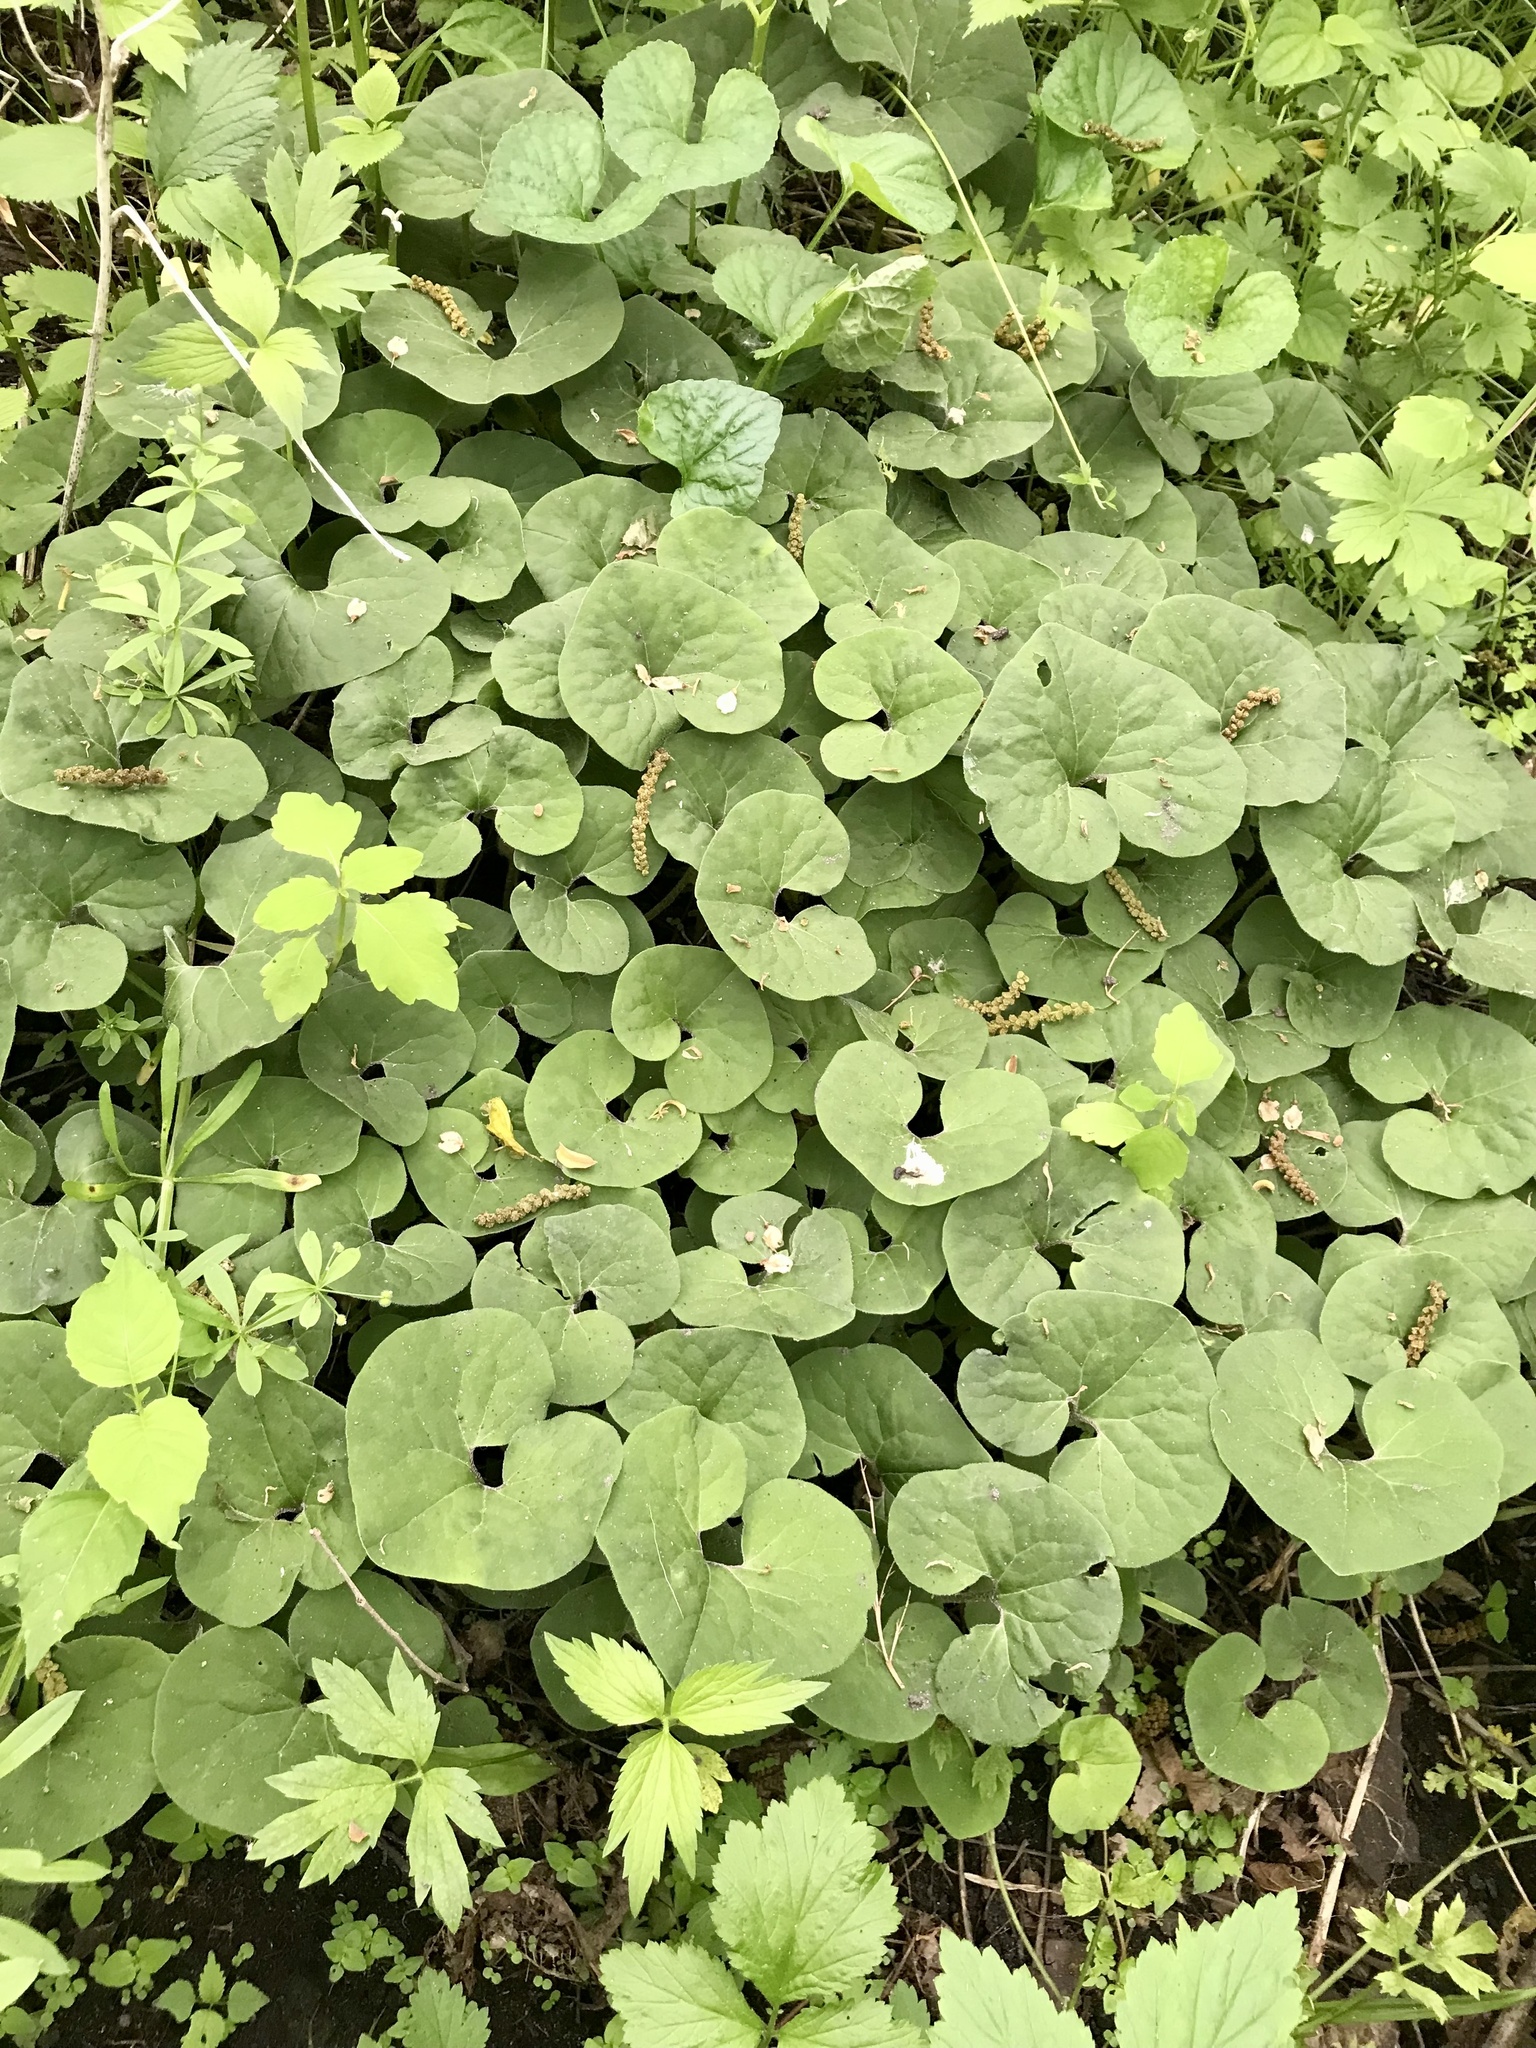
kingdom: Plantae
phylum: Tracheophyta
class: Magnoliopsida
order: Piperales
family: Aristolochiaceae
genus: Asarum
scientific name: Asarum canadense
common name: Wild ginger
